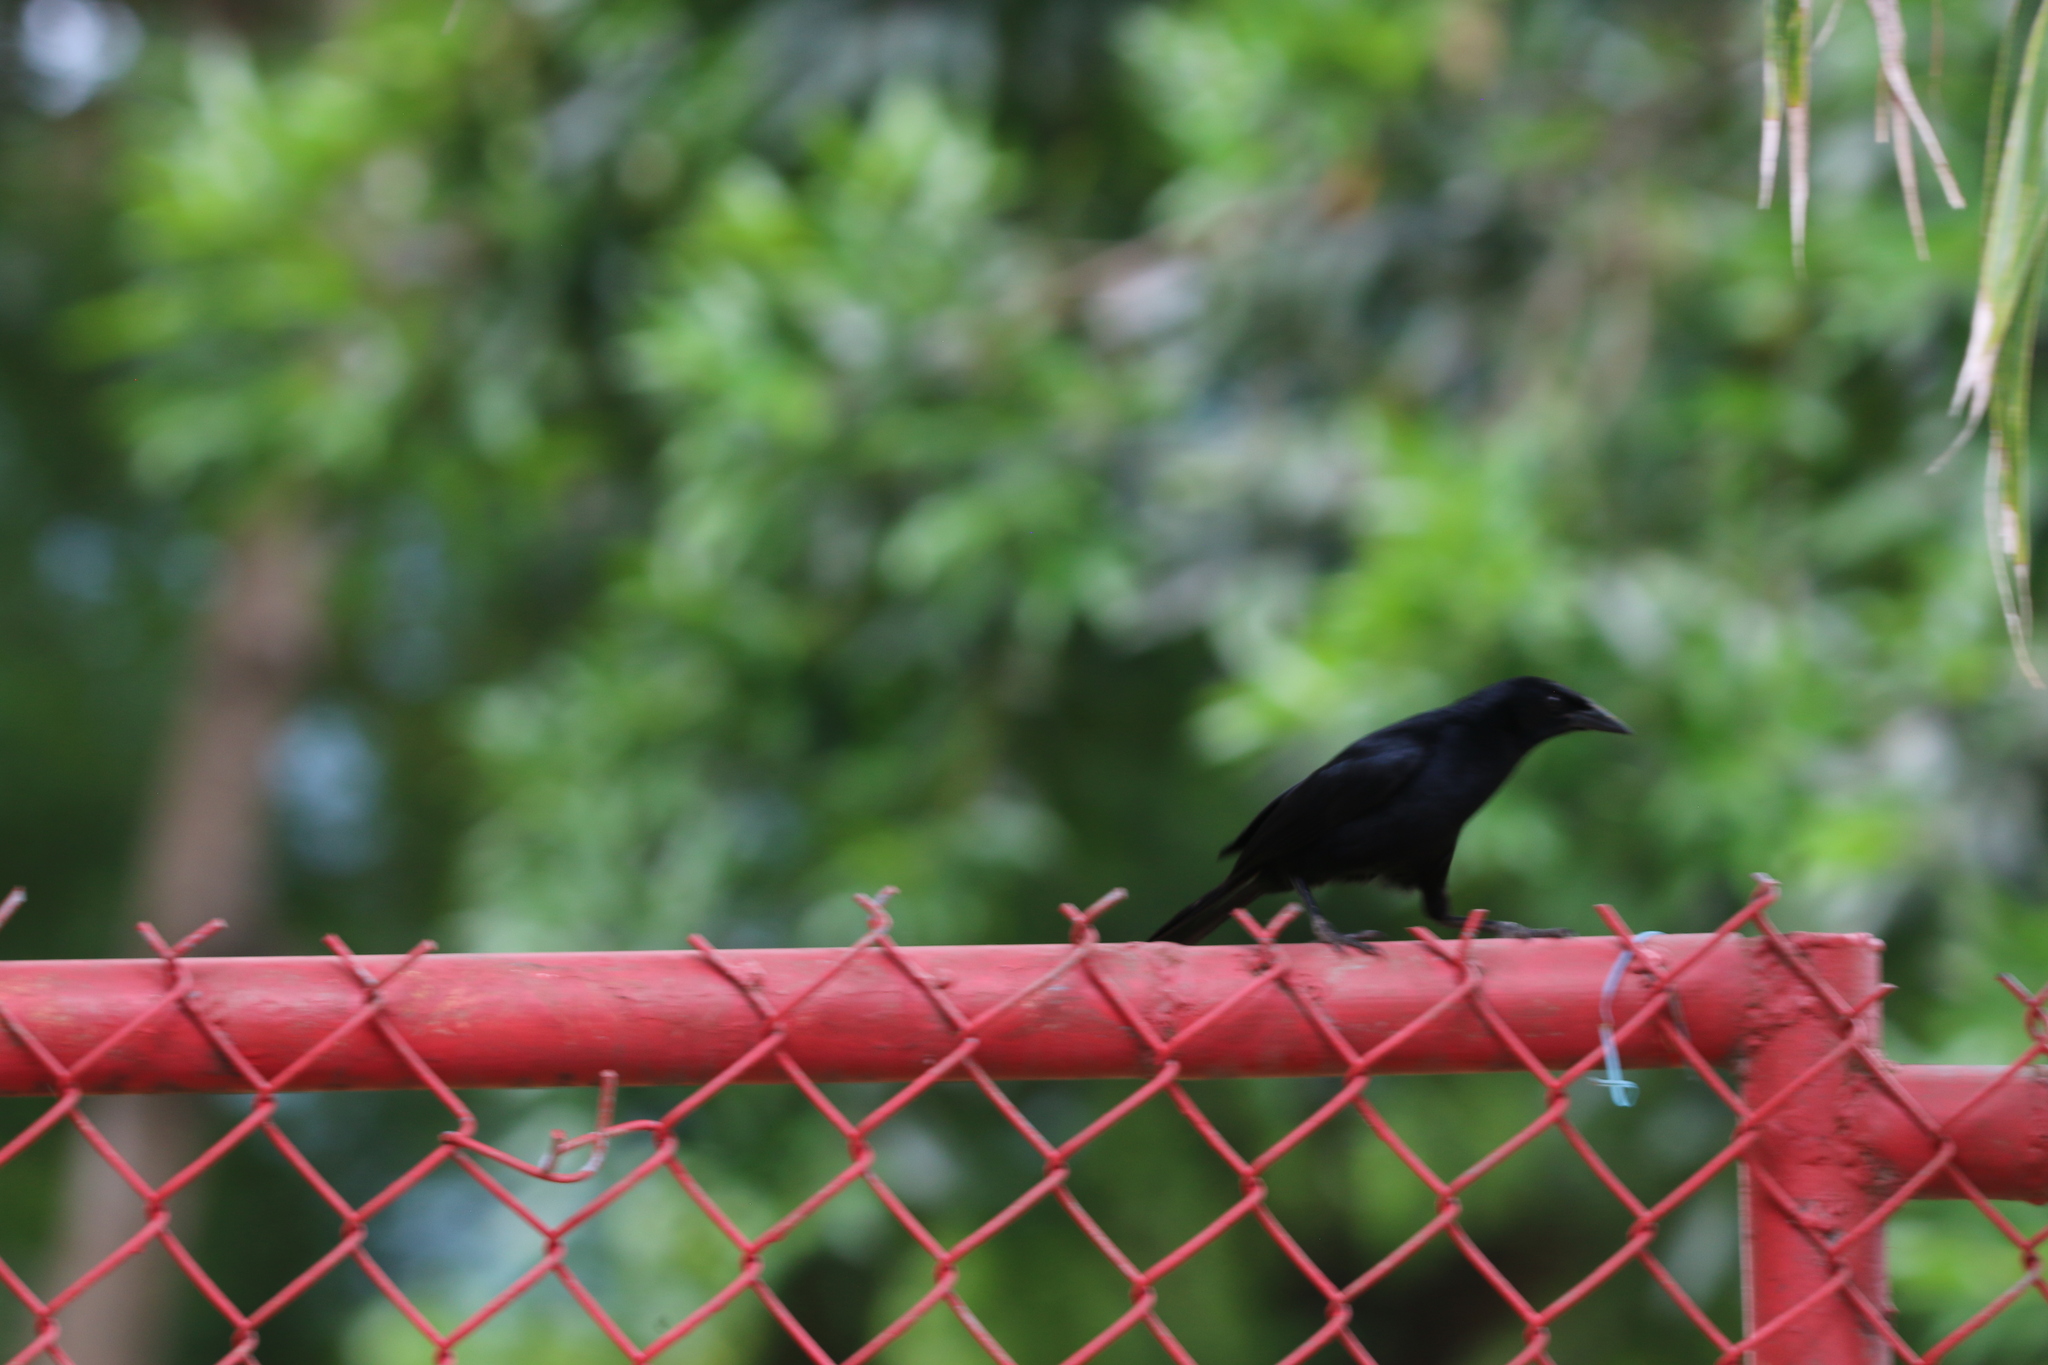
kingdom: Animalia
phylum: Chordata
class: Aves
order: Passeriformes
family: Icteridae
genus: Molothrus
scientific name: Molothrus bonariensis
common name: Shiny cowbird
